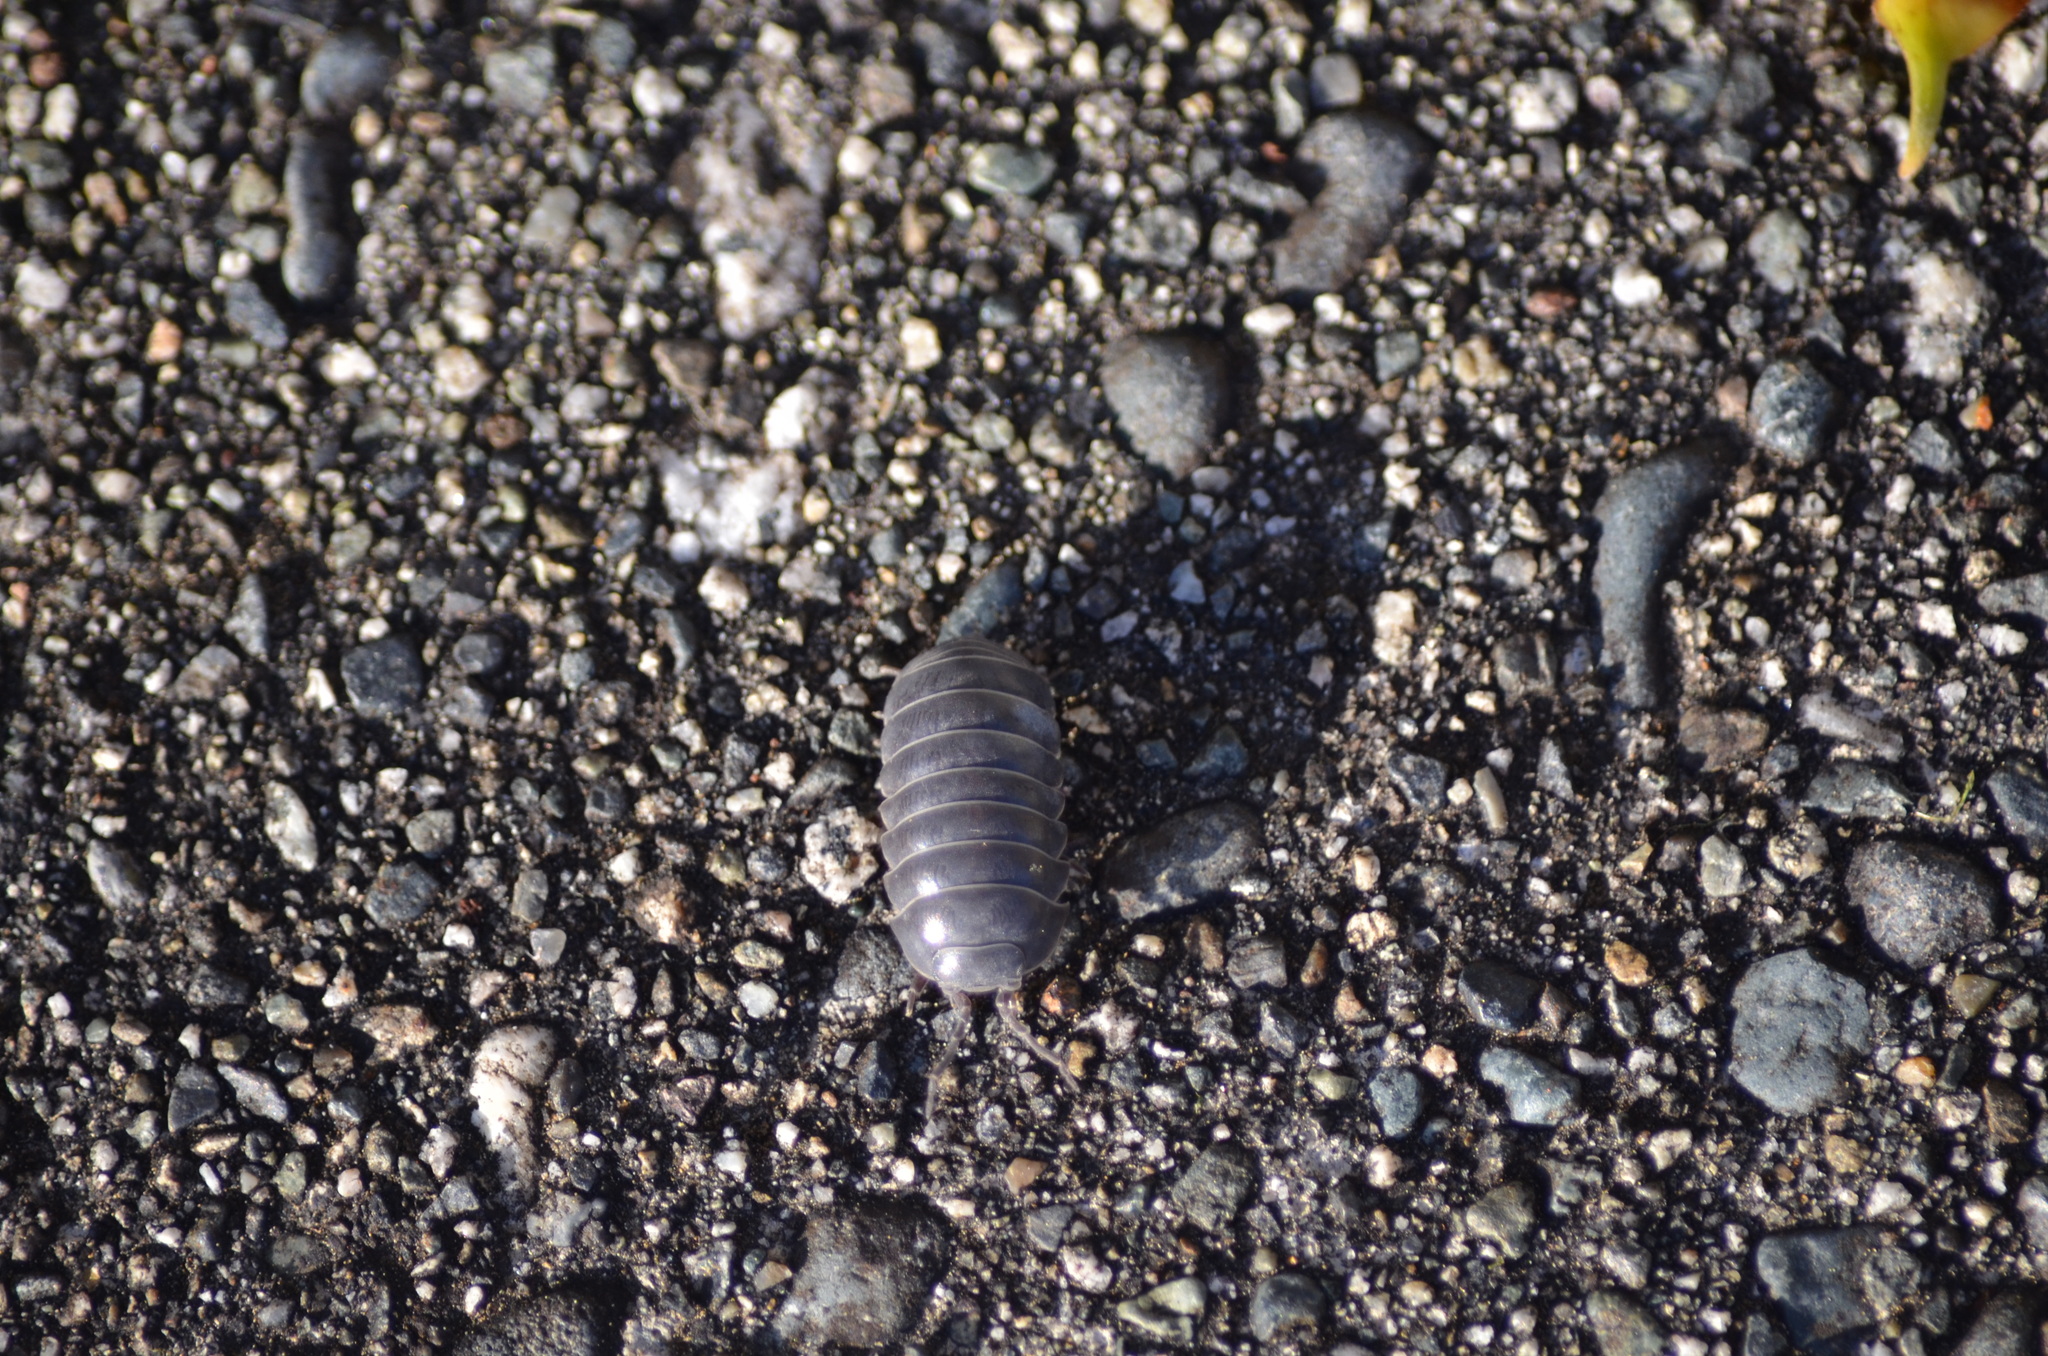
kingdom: Animalia
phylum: Arthropoda
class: Malacostraca
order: Isopoda
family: Armadillidiidae
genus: Armadillidium
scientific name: Armadillidium vulgare
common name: Common pill woodlouse
